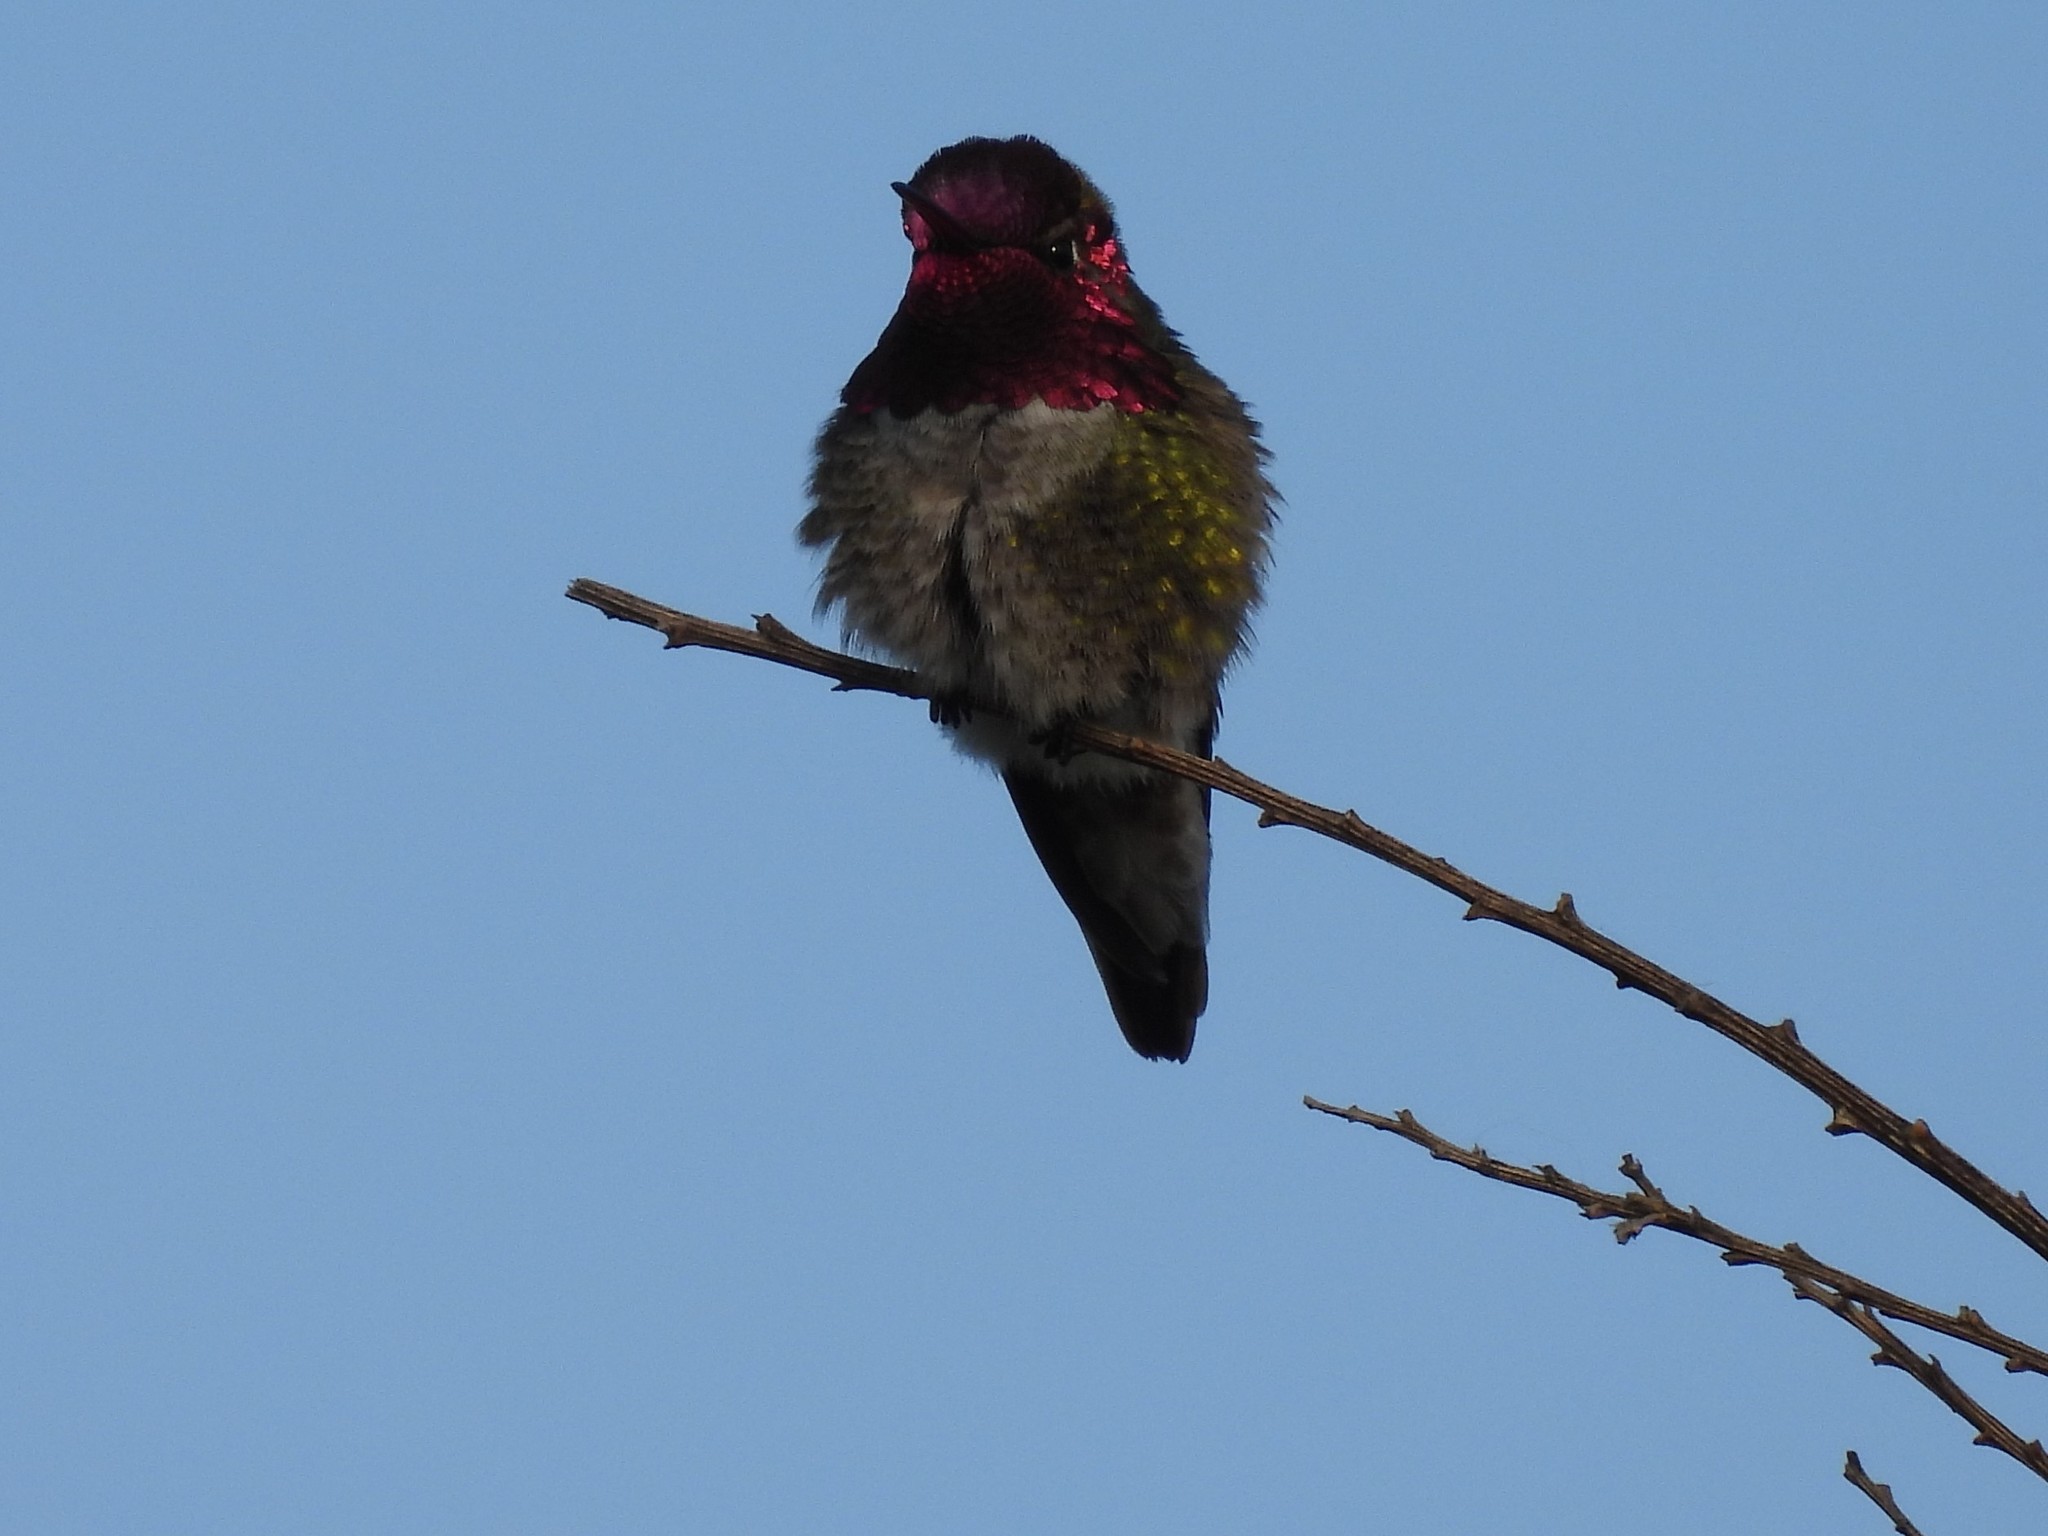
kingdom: Animalia
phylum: Chordata
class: Aves
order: Apodiformes
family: Trochilidae
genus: Calypte
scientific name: Calypte anna
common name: Anna's hummingbird
